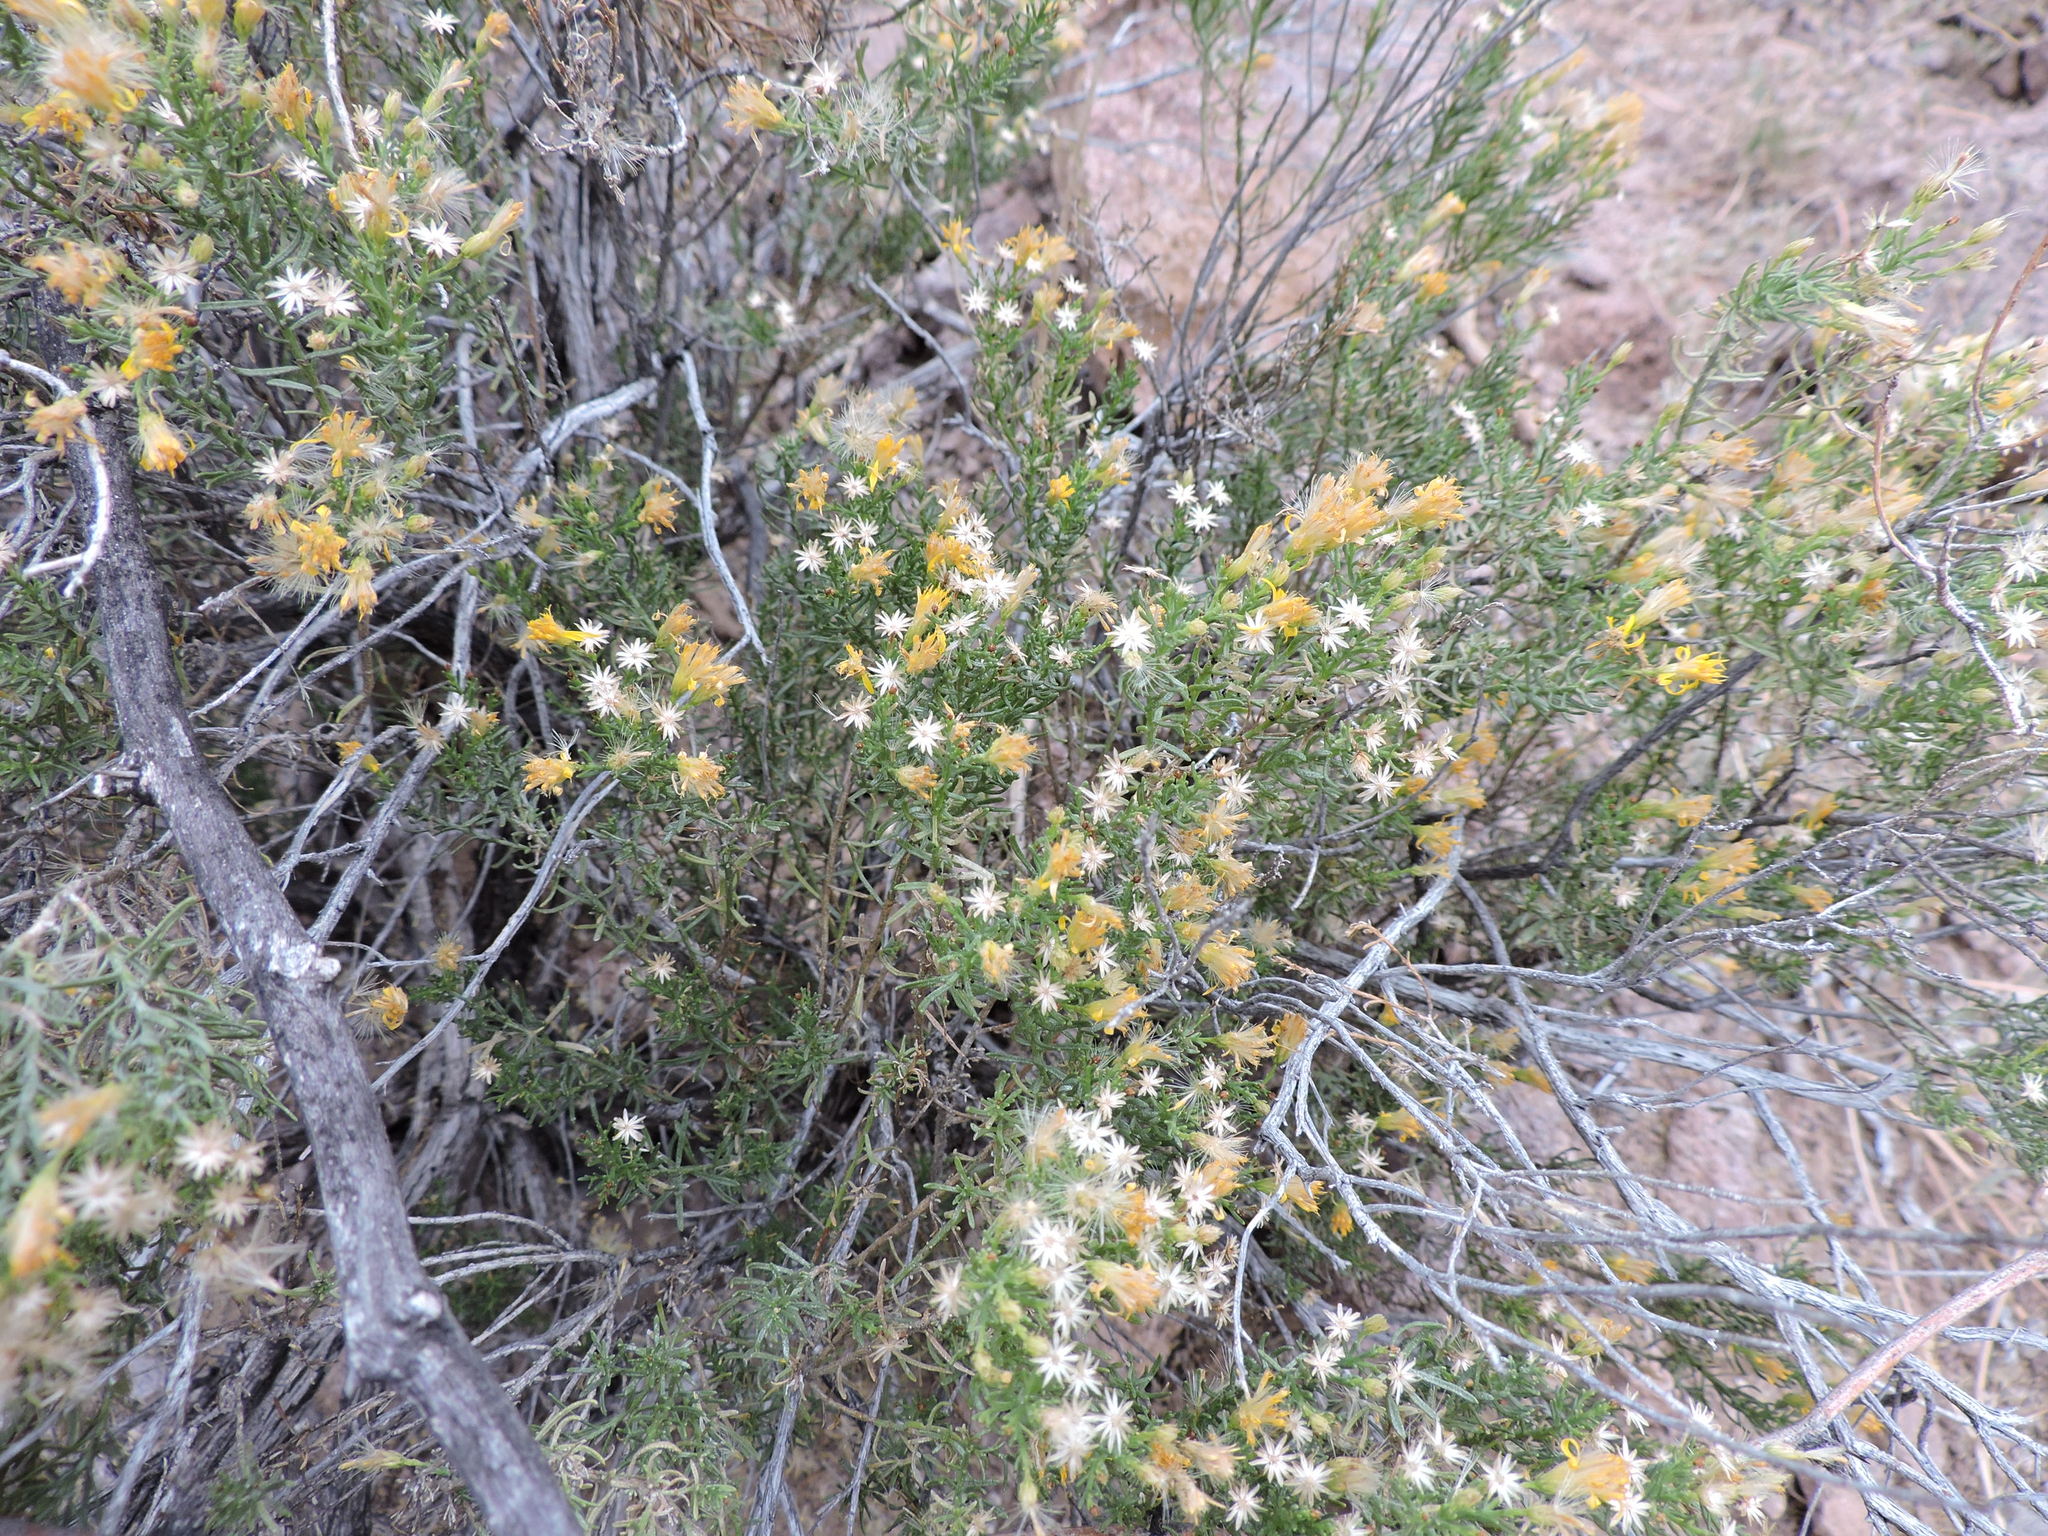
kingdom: Plantae
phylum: Tracheophyta
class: Magnoliopsida
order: Asterales
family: Asteraceae
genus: Ericameria
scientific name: Ericameria laricifolia
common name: Turpentine-bush
